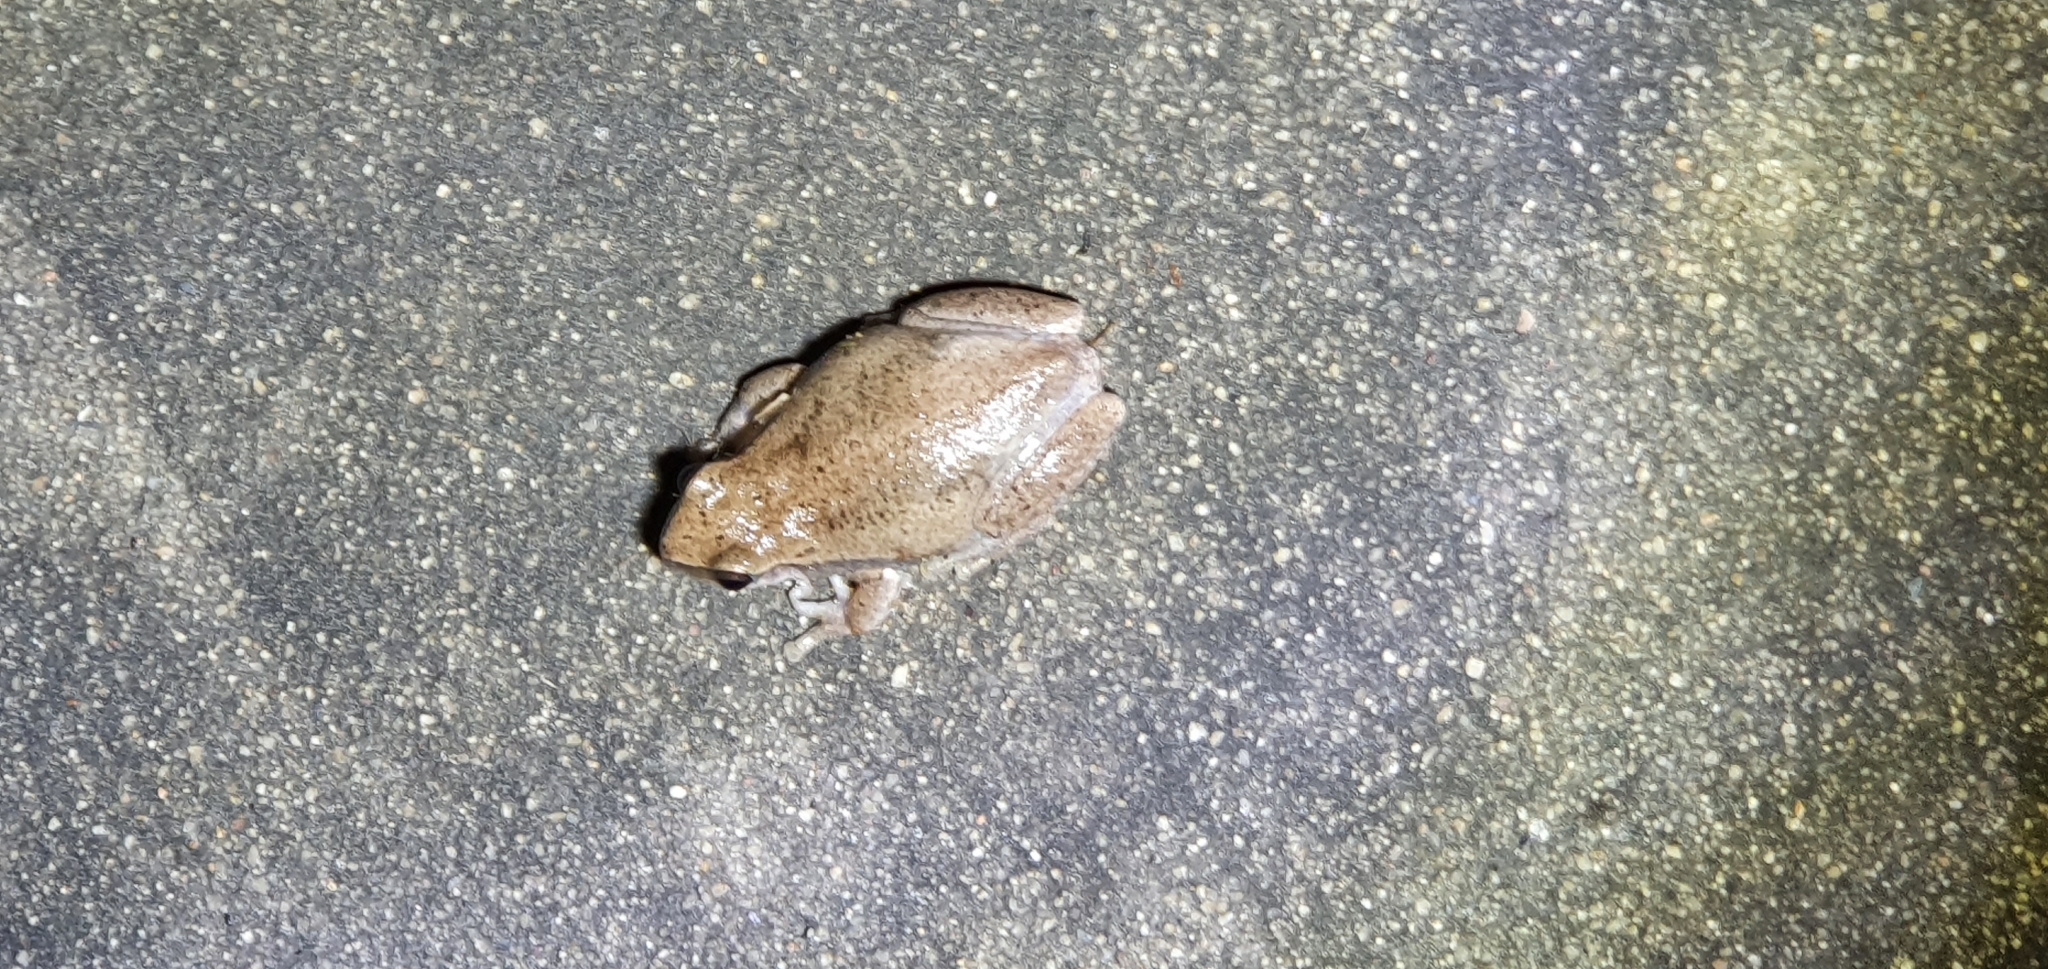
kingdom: Animalia
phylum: Chordata
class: Amphibia
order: Anura
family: Pelodryadidae
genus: Litoria
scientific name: Litoria rubella
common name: Desert tree frog
